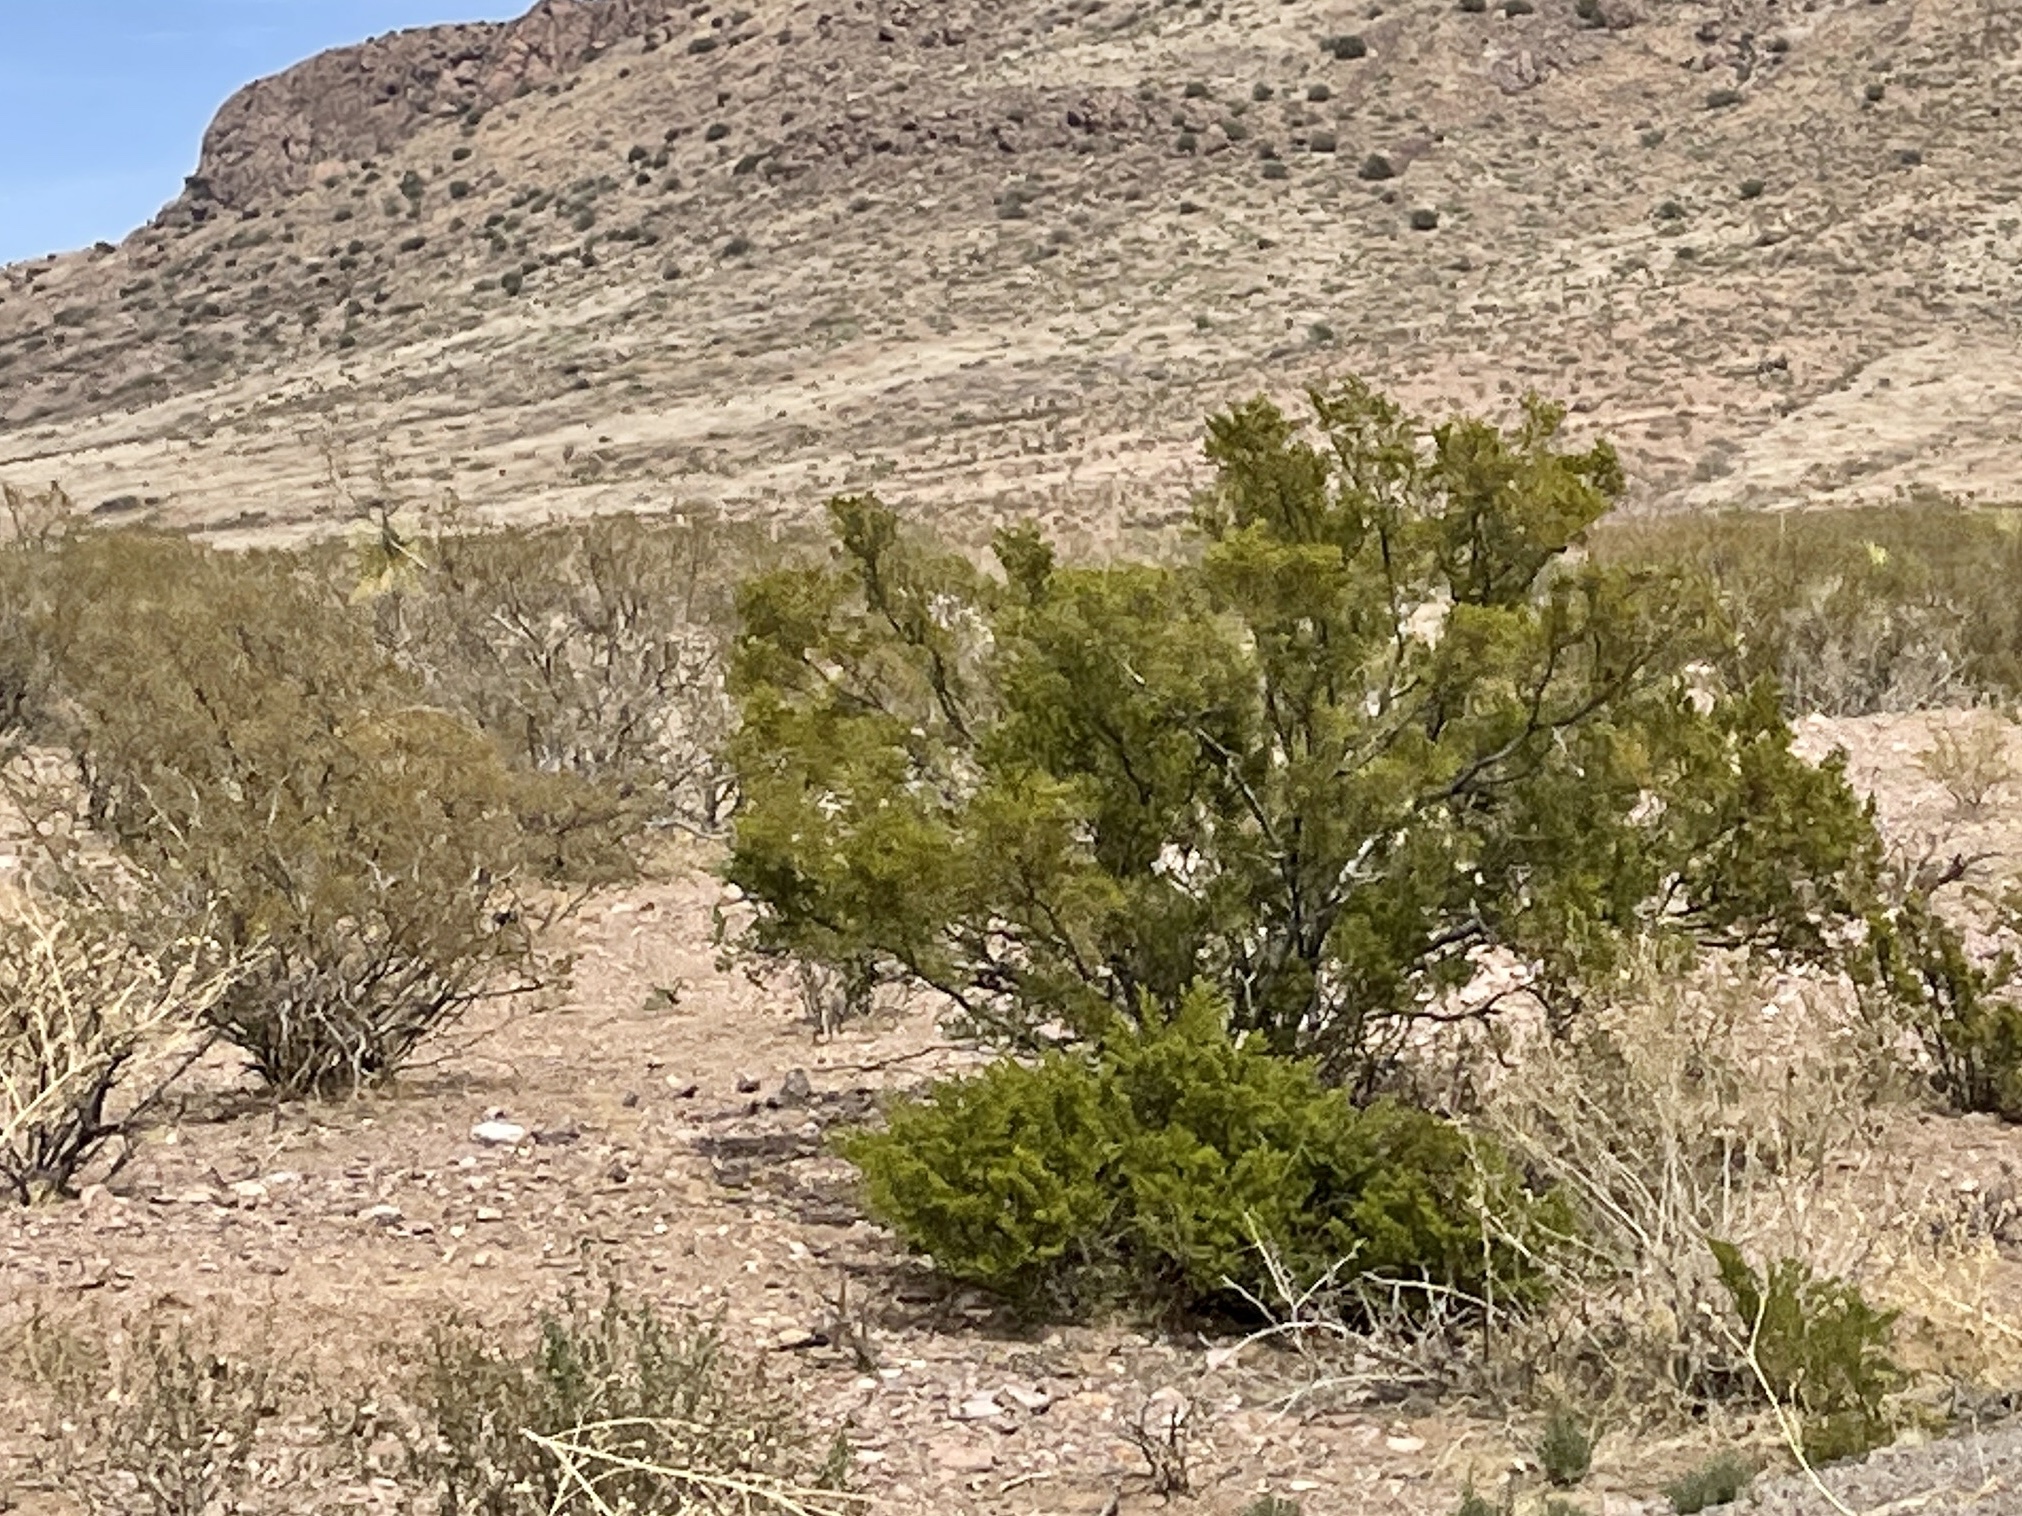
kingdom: Plantae
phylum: Tracheophyta
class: Magnoliopsida
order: Zygophyllales
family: Zygophyllaceae
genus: Larrea
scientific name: Larrea tridentata
